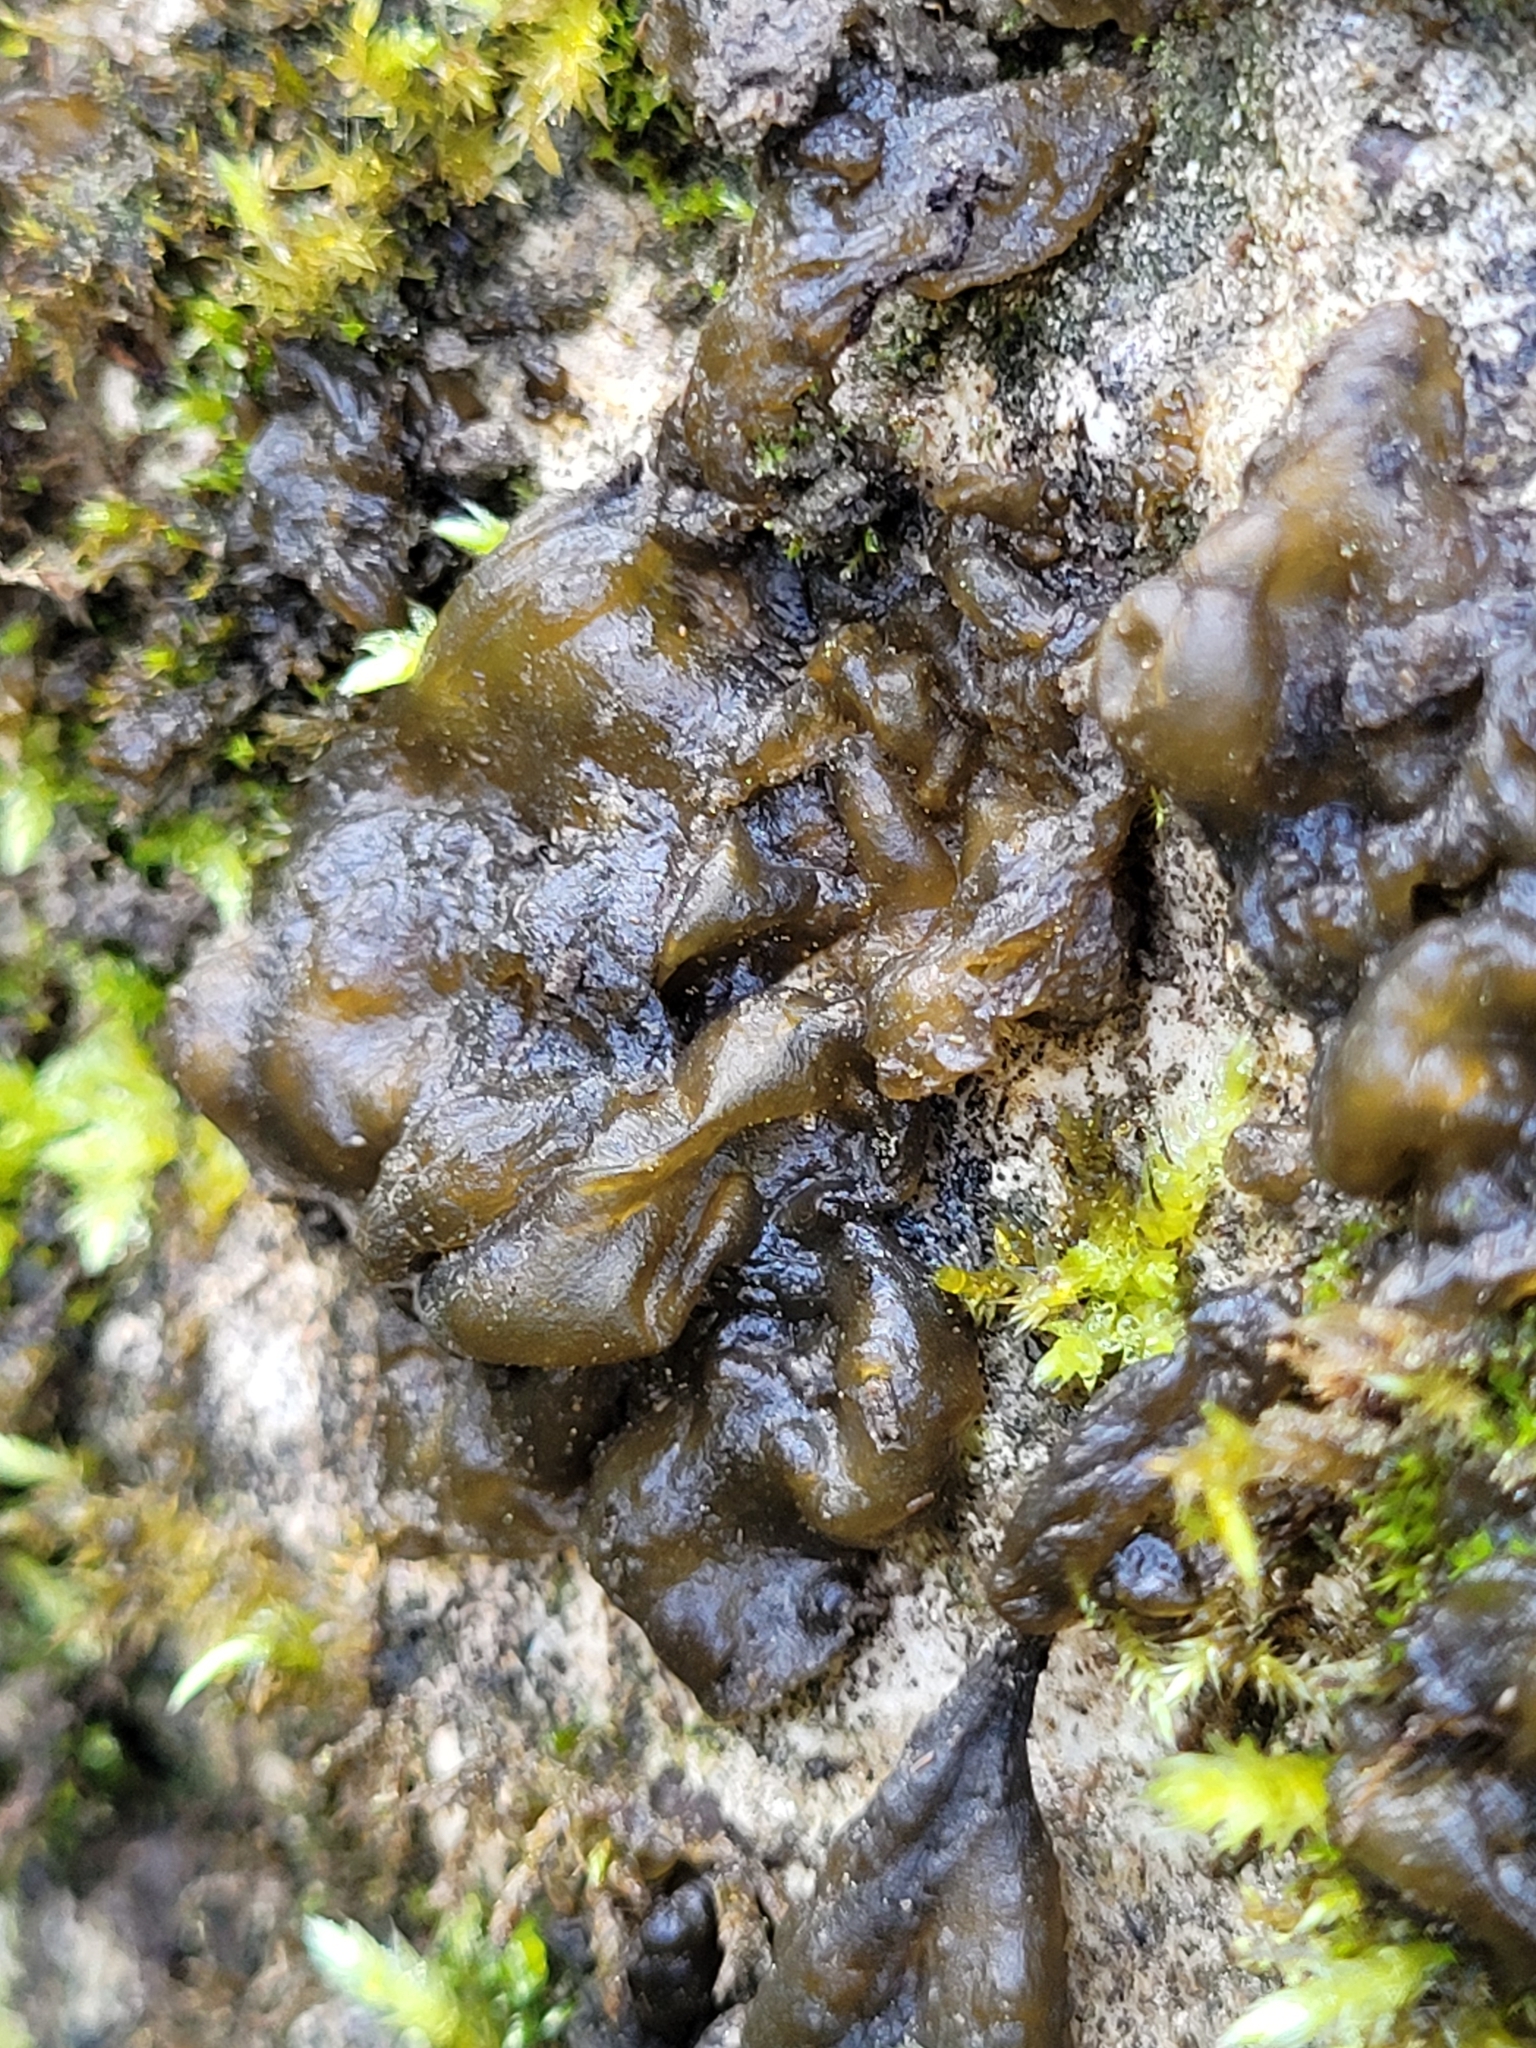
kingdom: Bacteria
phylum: Cyanobacteria
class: Cyanobacteriia
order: Cyanobacteriales
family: Nostocaceae
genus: Nostoc
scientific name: Nostoc commune
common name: Star jelly
